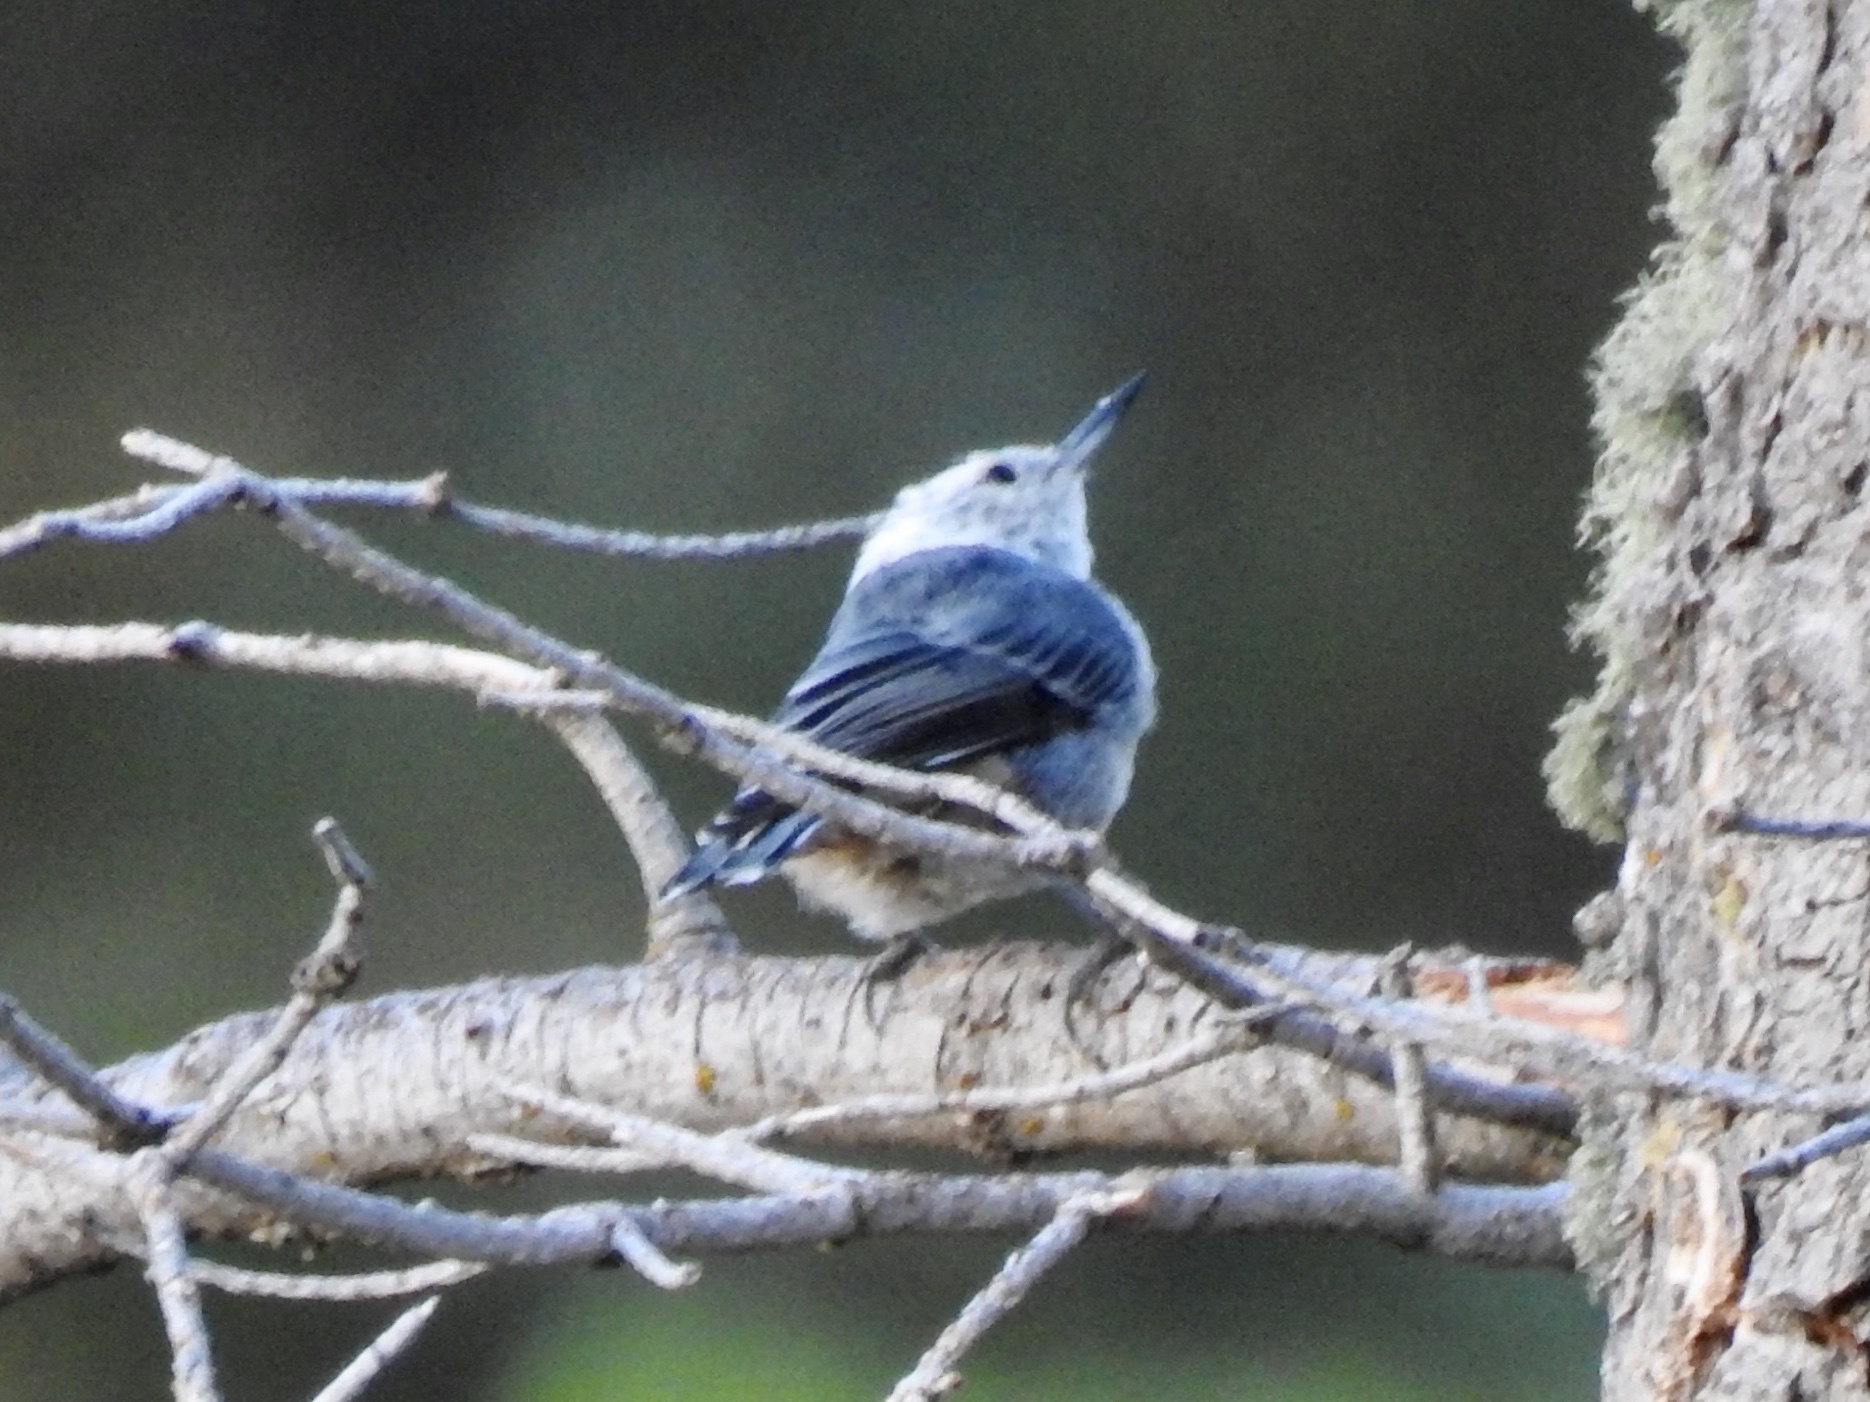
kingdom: Animalia
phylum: Chordata
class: Aves
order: Passeriformes
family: Sittidae
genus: Sitta
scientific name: Sitta carolinensis
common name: White-breasted nuthatch
